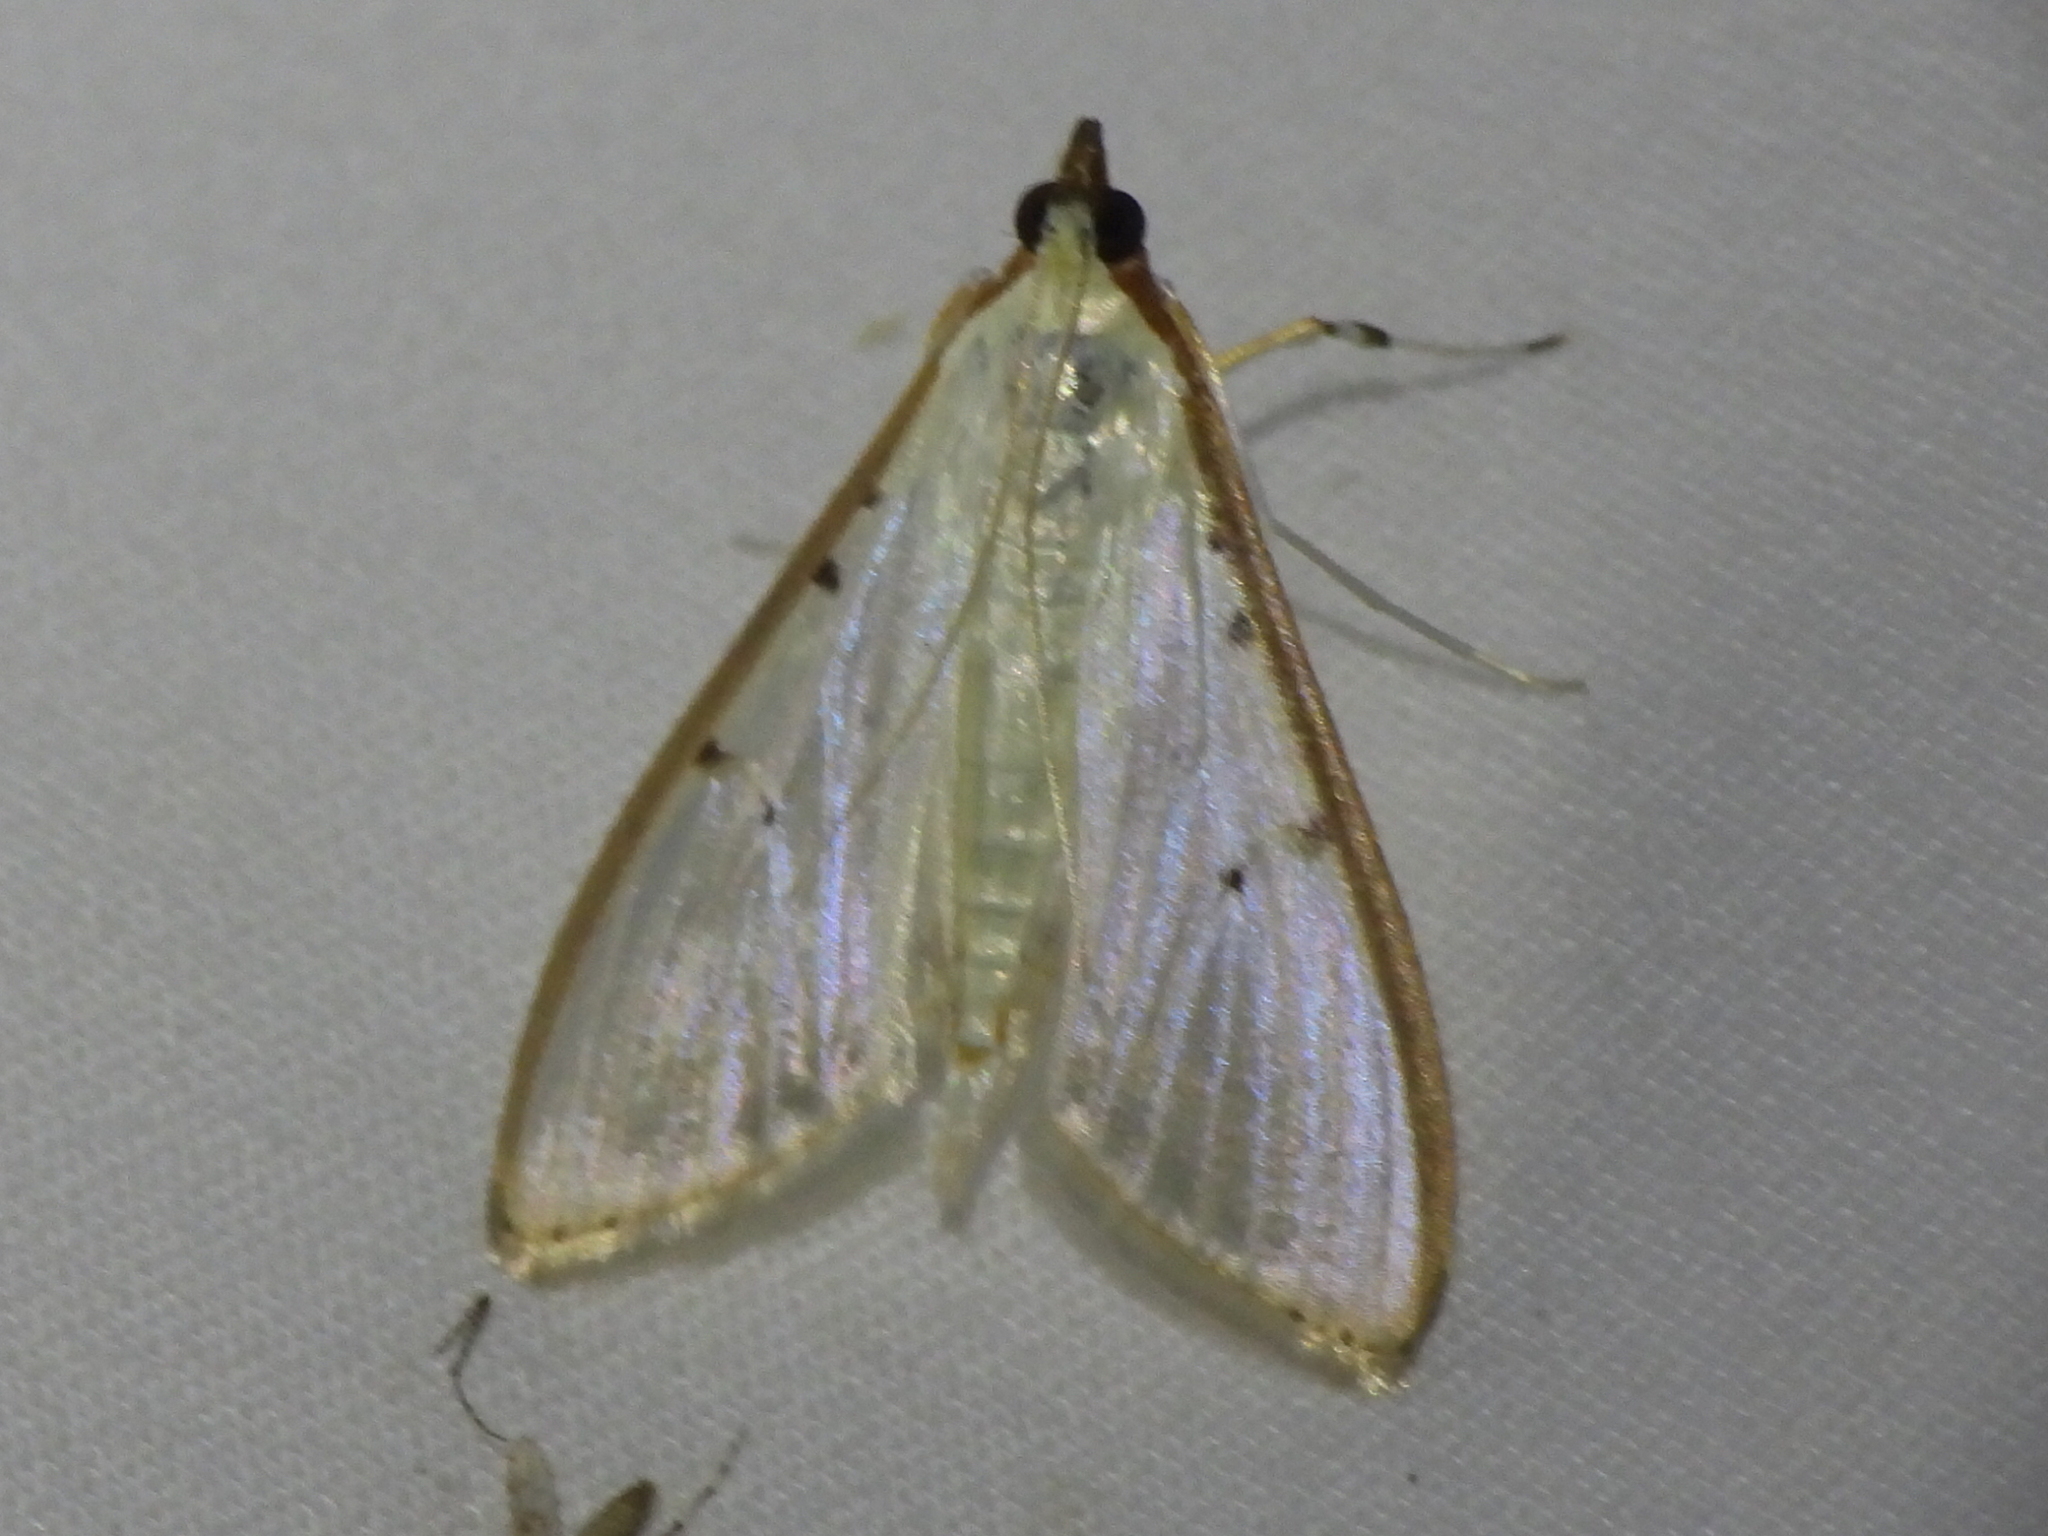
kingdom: Animalia
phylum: Arthropoda
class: Insecta
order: Lepidoptera
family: Crambidae
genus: Palpita
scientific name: Palpita quadristigmalis
